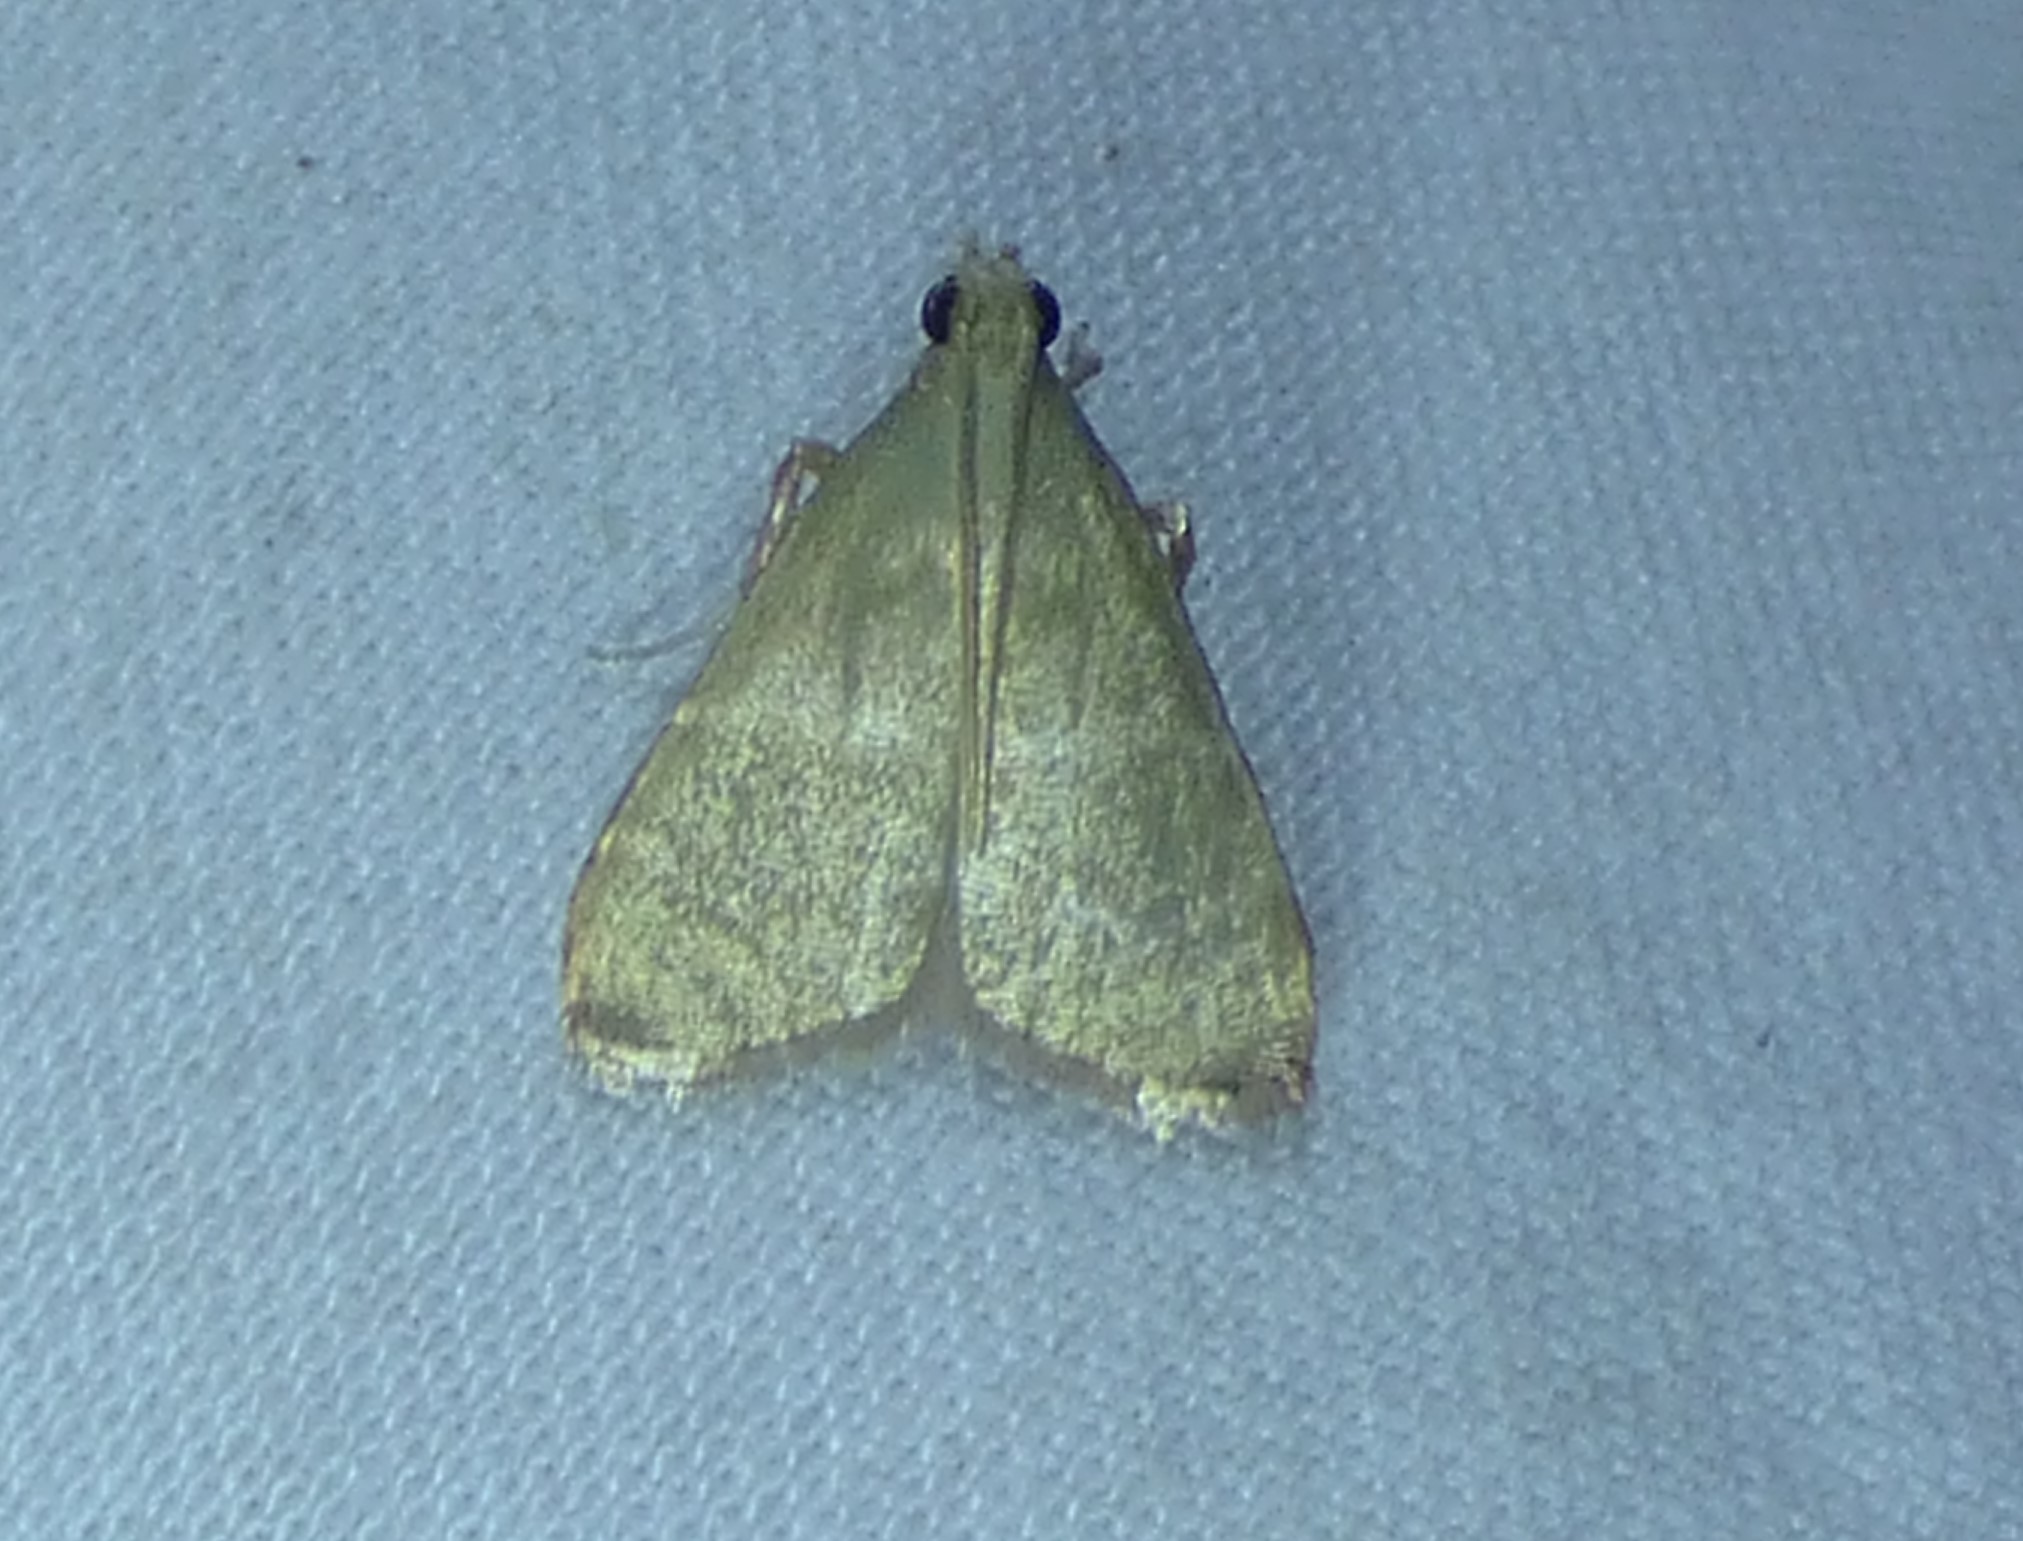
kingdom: Animalia
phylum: Arthropoda
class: Insecta
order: Lepidoptera
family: Pyralidae
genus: Arta
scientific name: Arta olivalis
